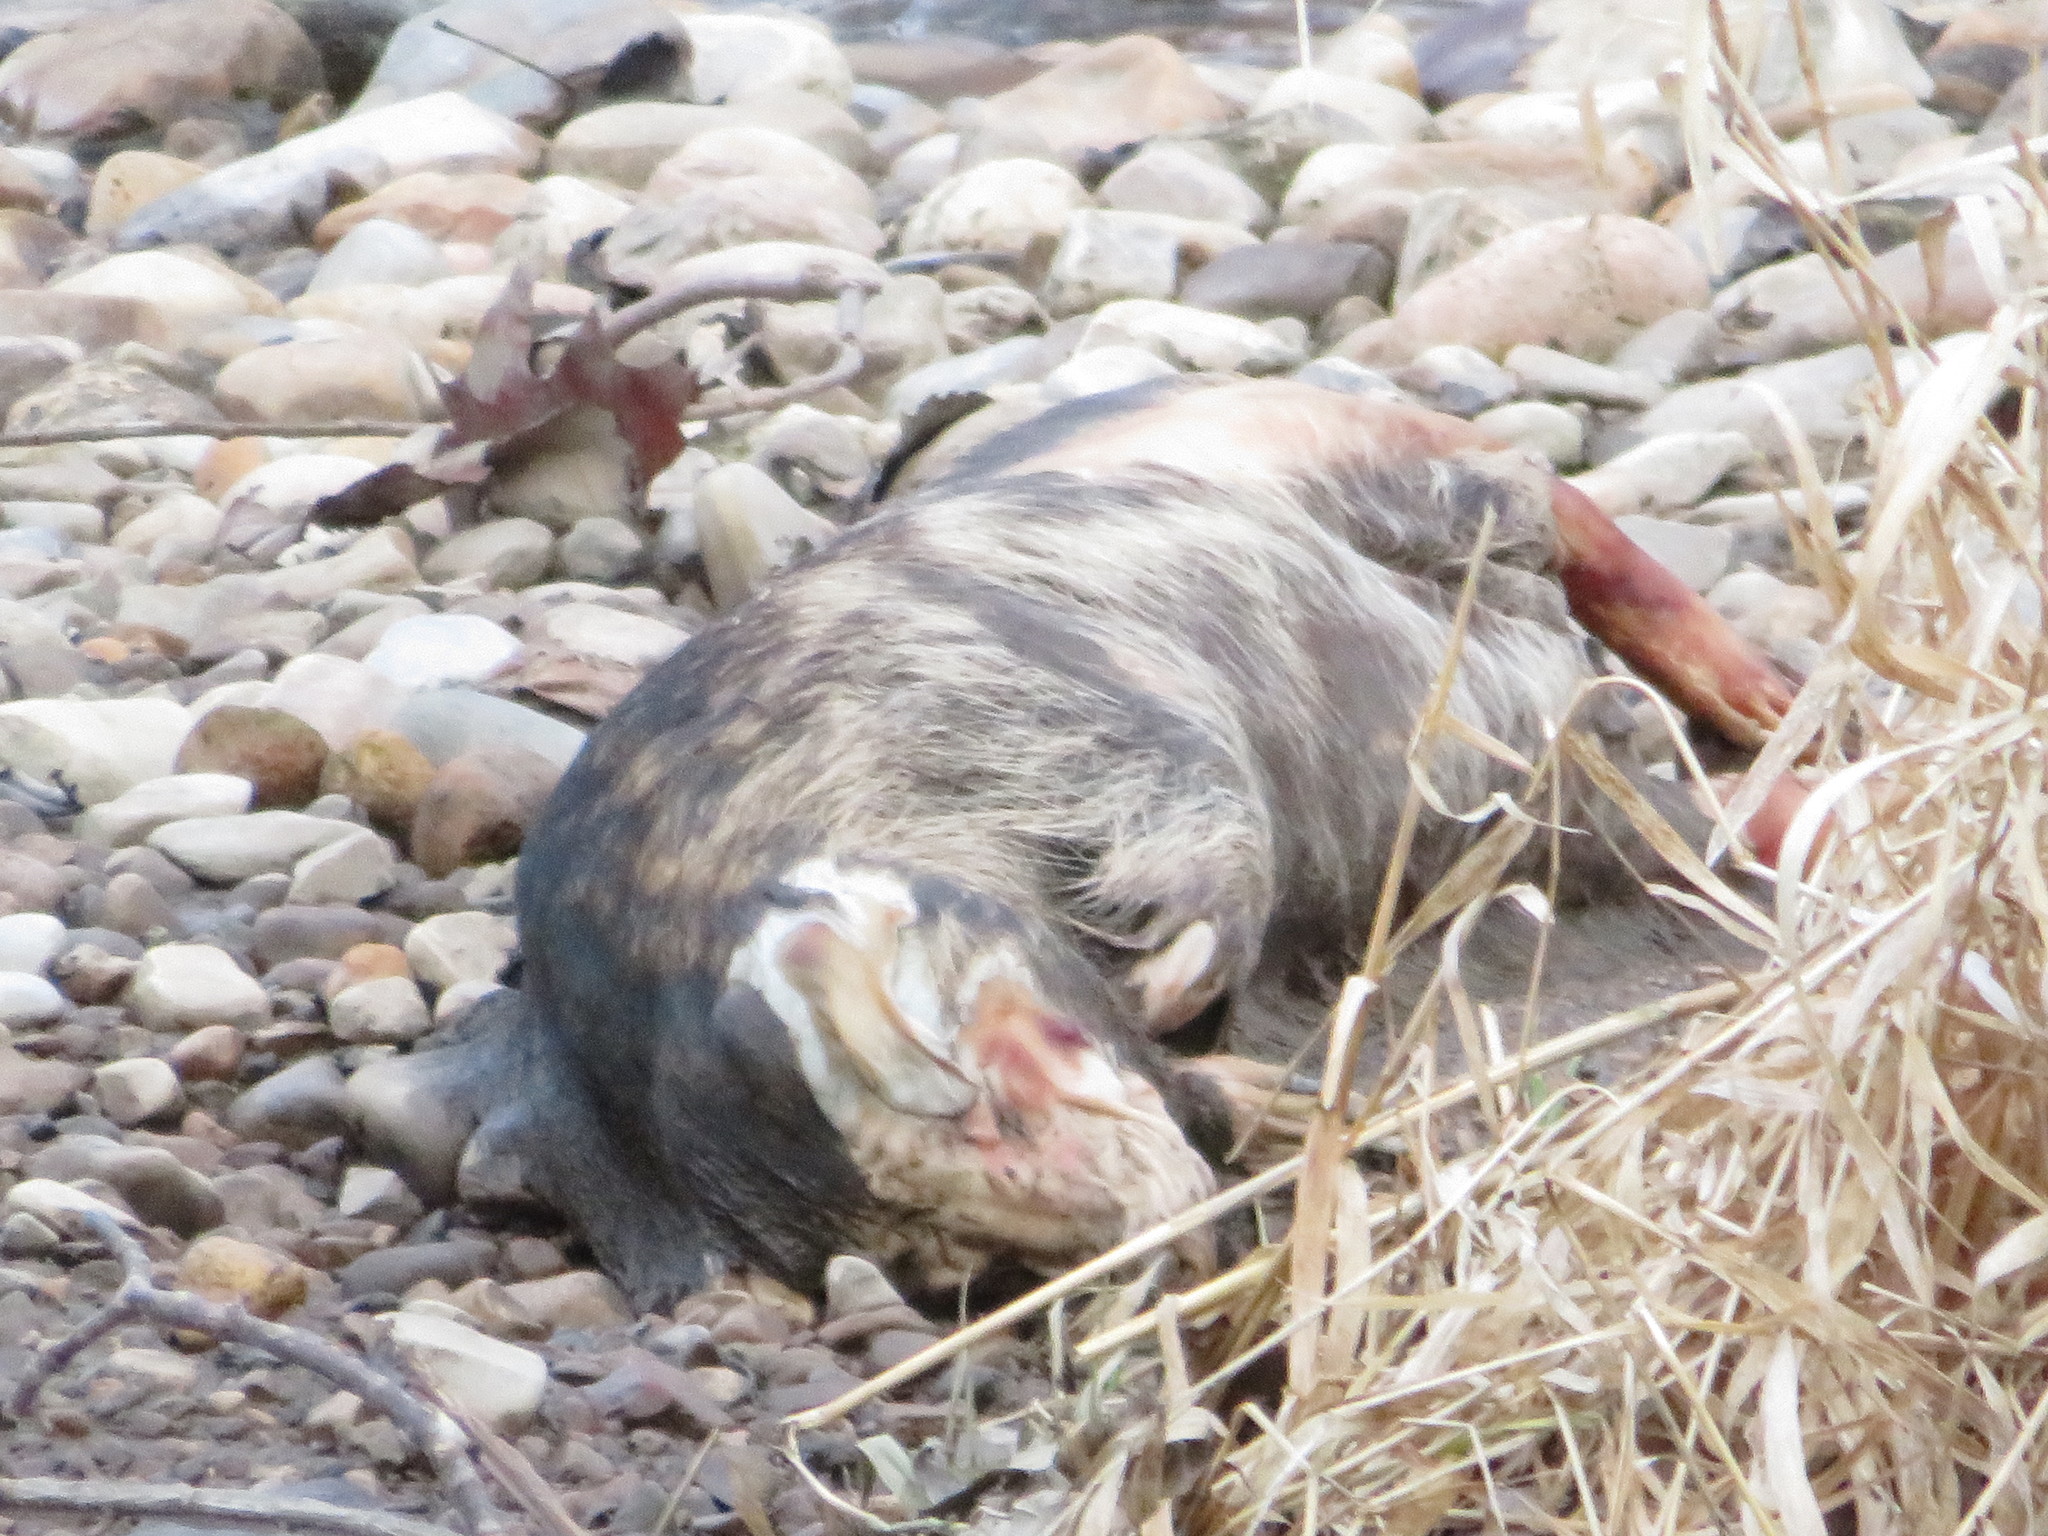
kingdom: Animalia
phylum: Chordata
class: Mammalia
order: Carnivora
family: Canidae
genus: Canis
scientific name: Canis lupus
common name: Gray wolf
